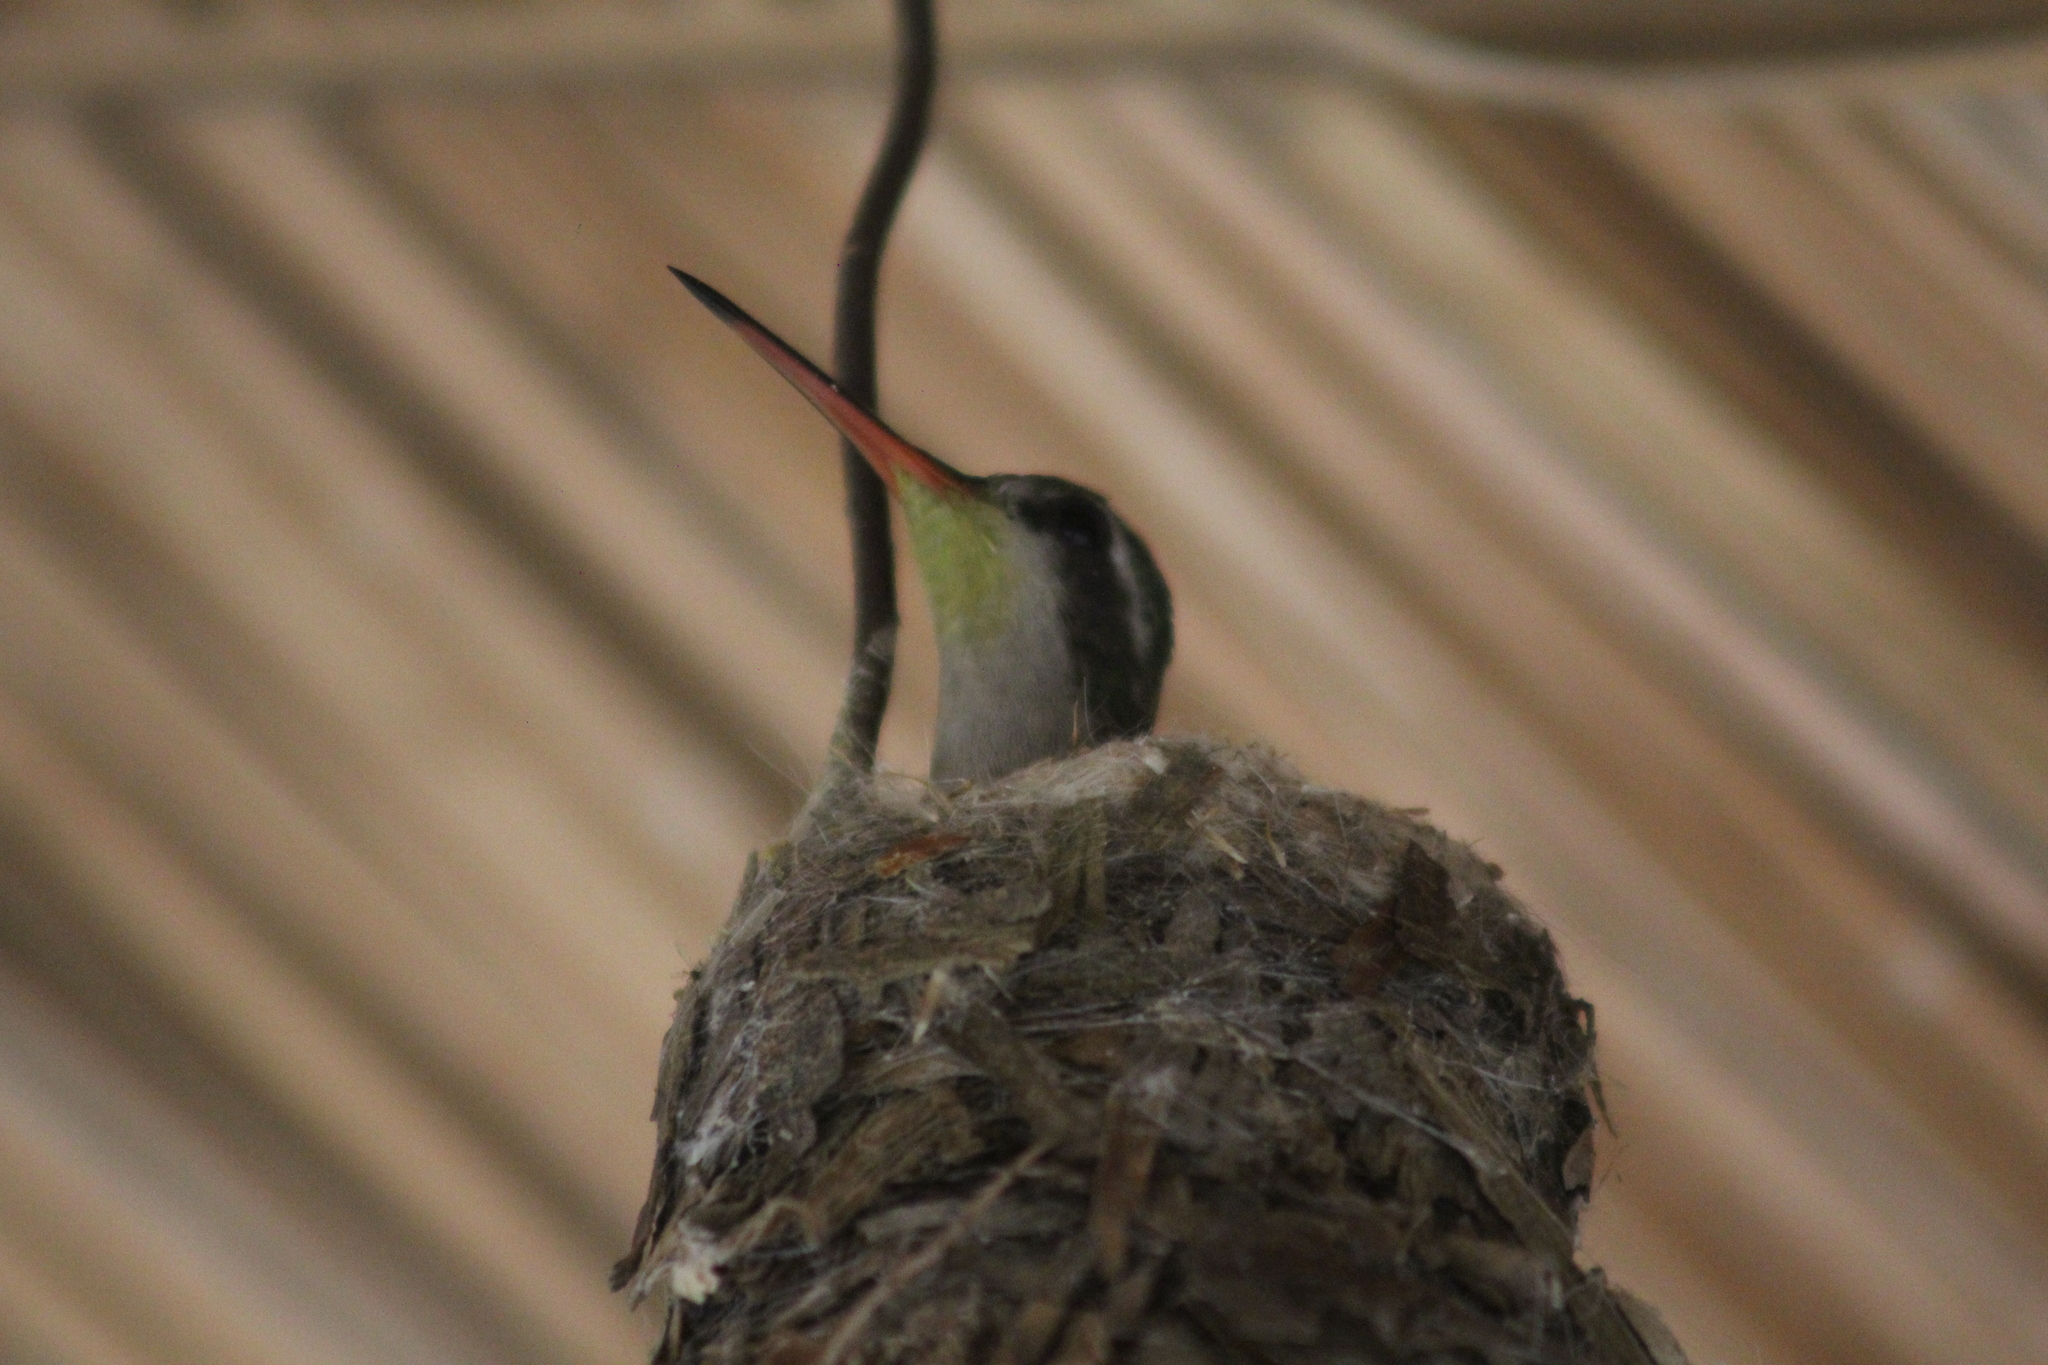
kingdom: Animalia
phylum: Chordata
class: Aves
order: Apodiformes
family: Trochilidae
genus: Chlorostilbon
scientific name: Chlorostilbon lucidus
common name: Glittering-bellied emerald
